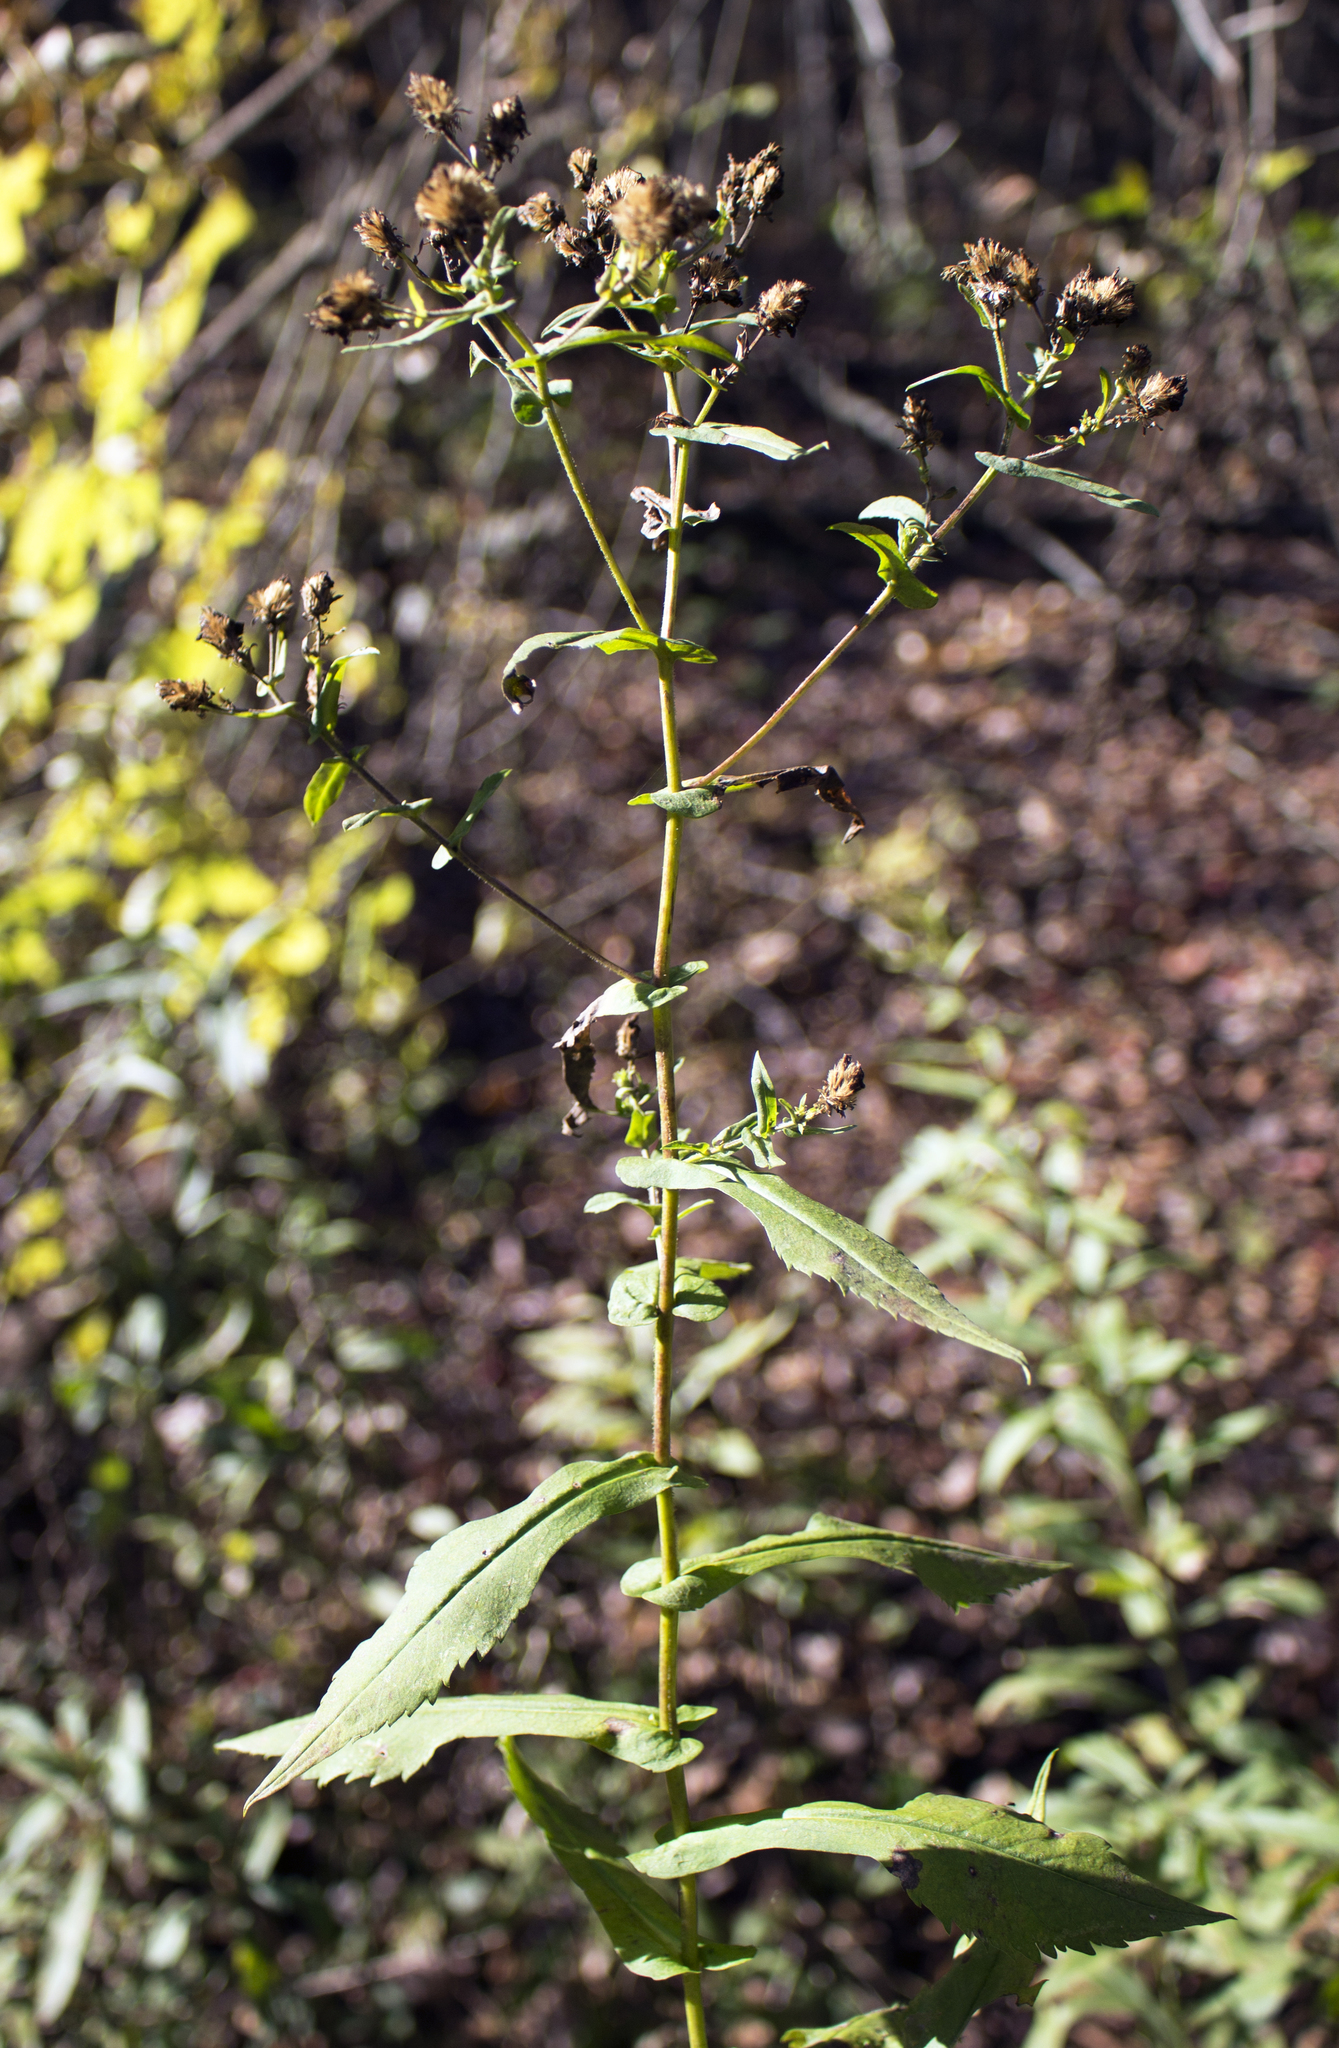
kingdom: Plantae
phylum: Tracheophyta
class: Magnoliopsida
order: Asterales
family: Asteraceae
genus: Symphyotrichum
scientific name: Symphyotrichum prenanthoides
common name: Crooked-stem aster
